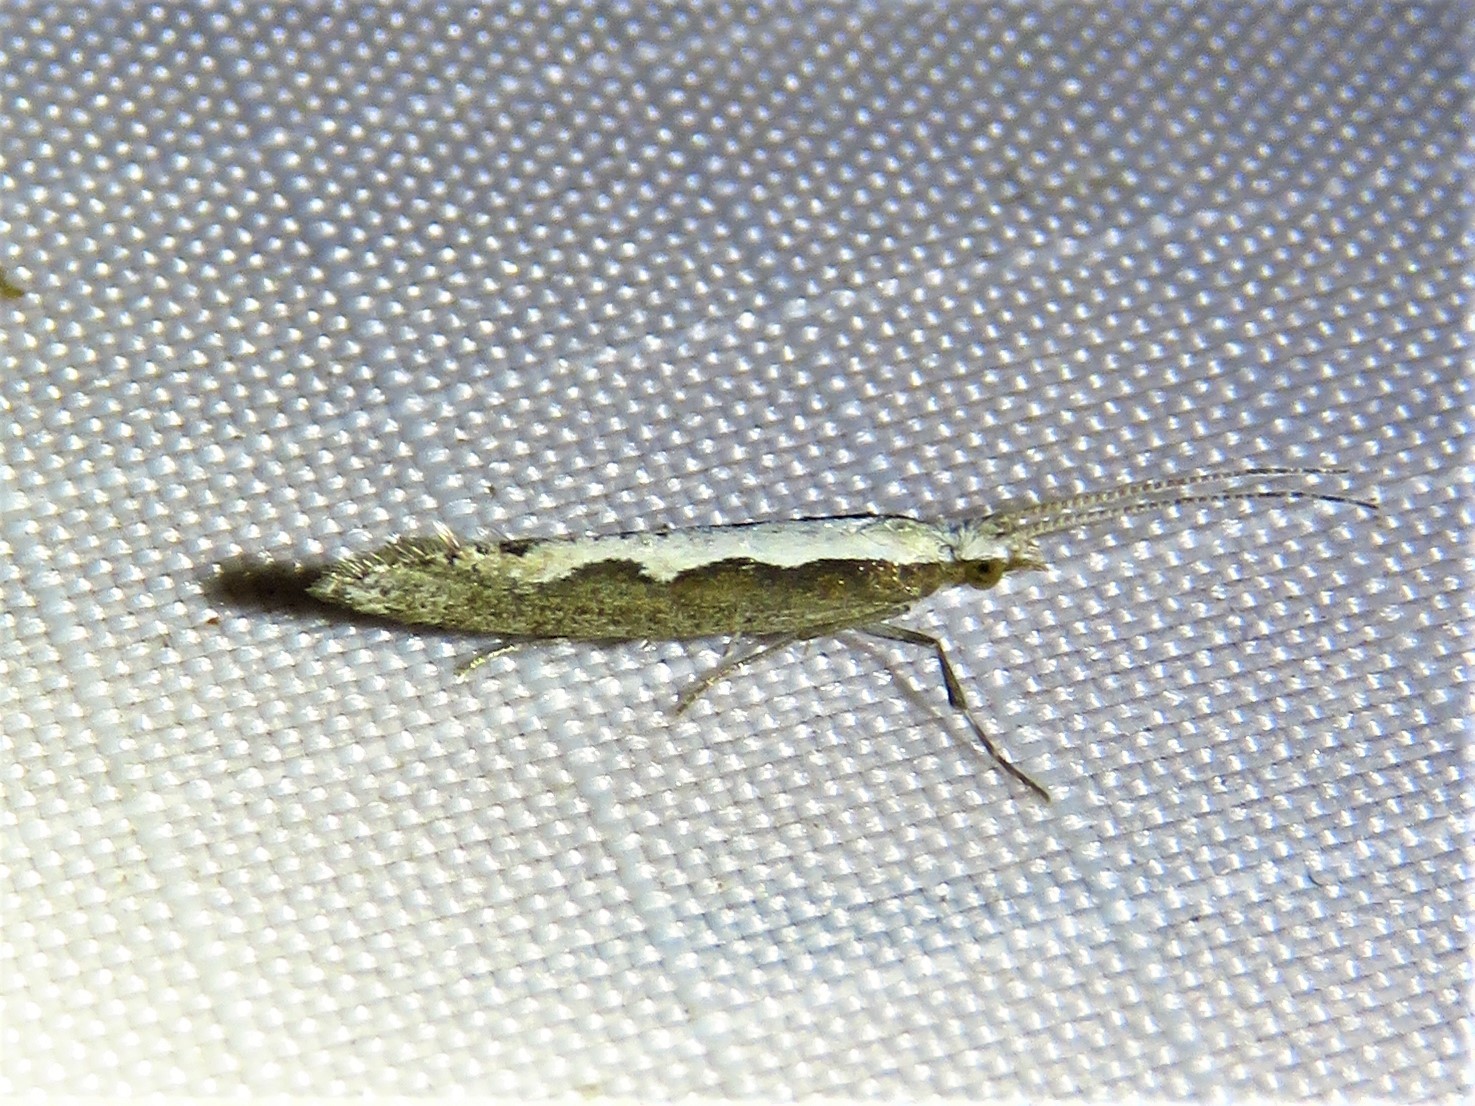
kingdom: Animalia
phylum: Arthropoda
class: Insecta
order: Lepidoptera
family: Plutellidae
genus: Plutella
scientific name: Plutella xylostella
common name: Diamond-back moth
